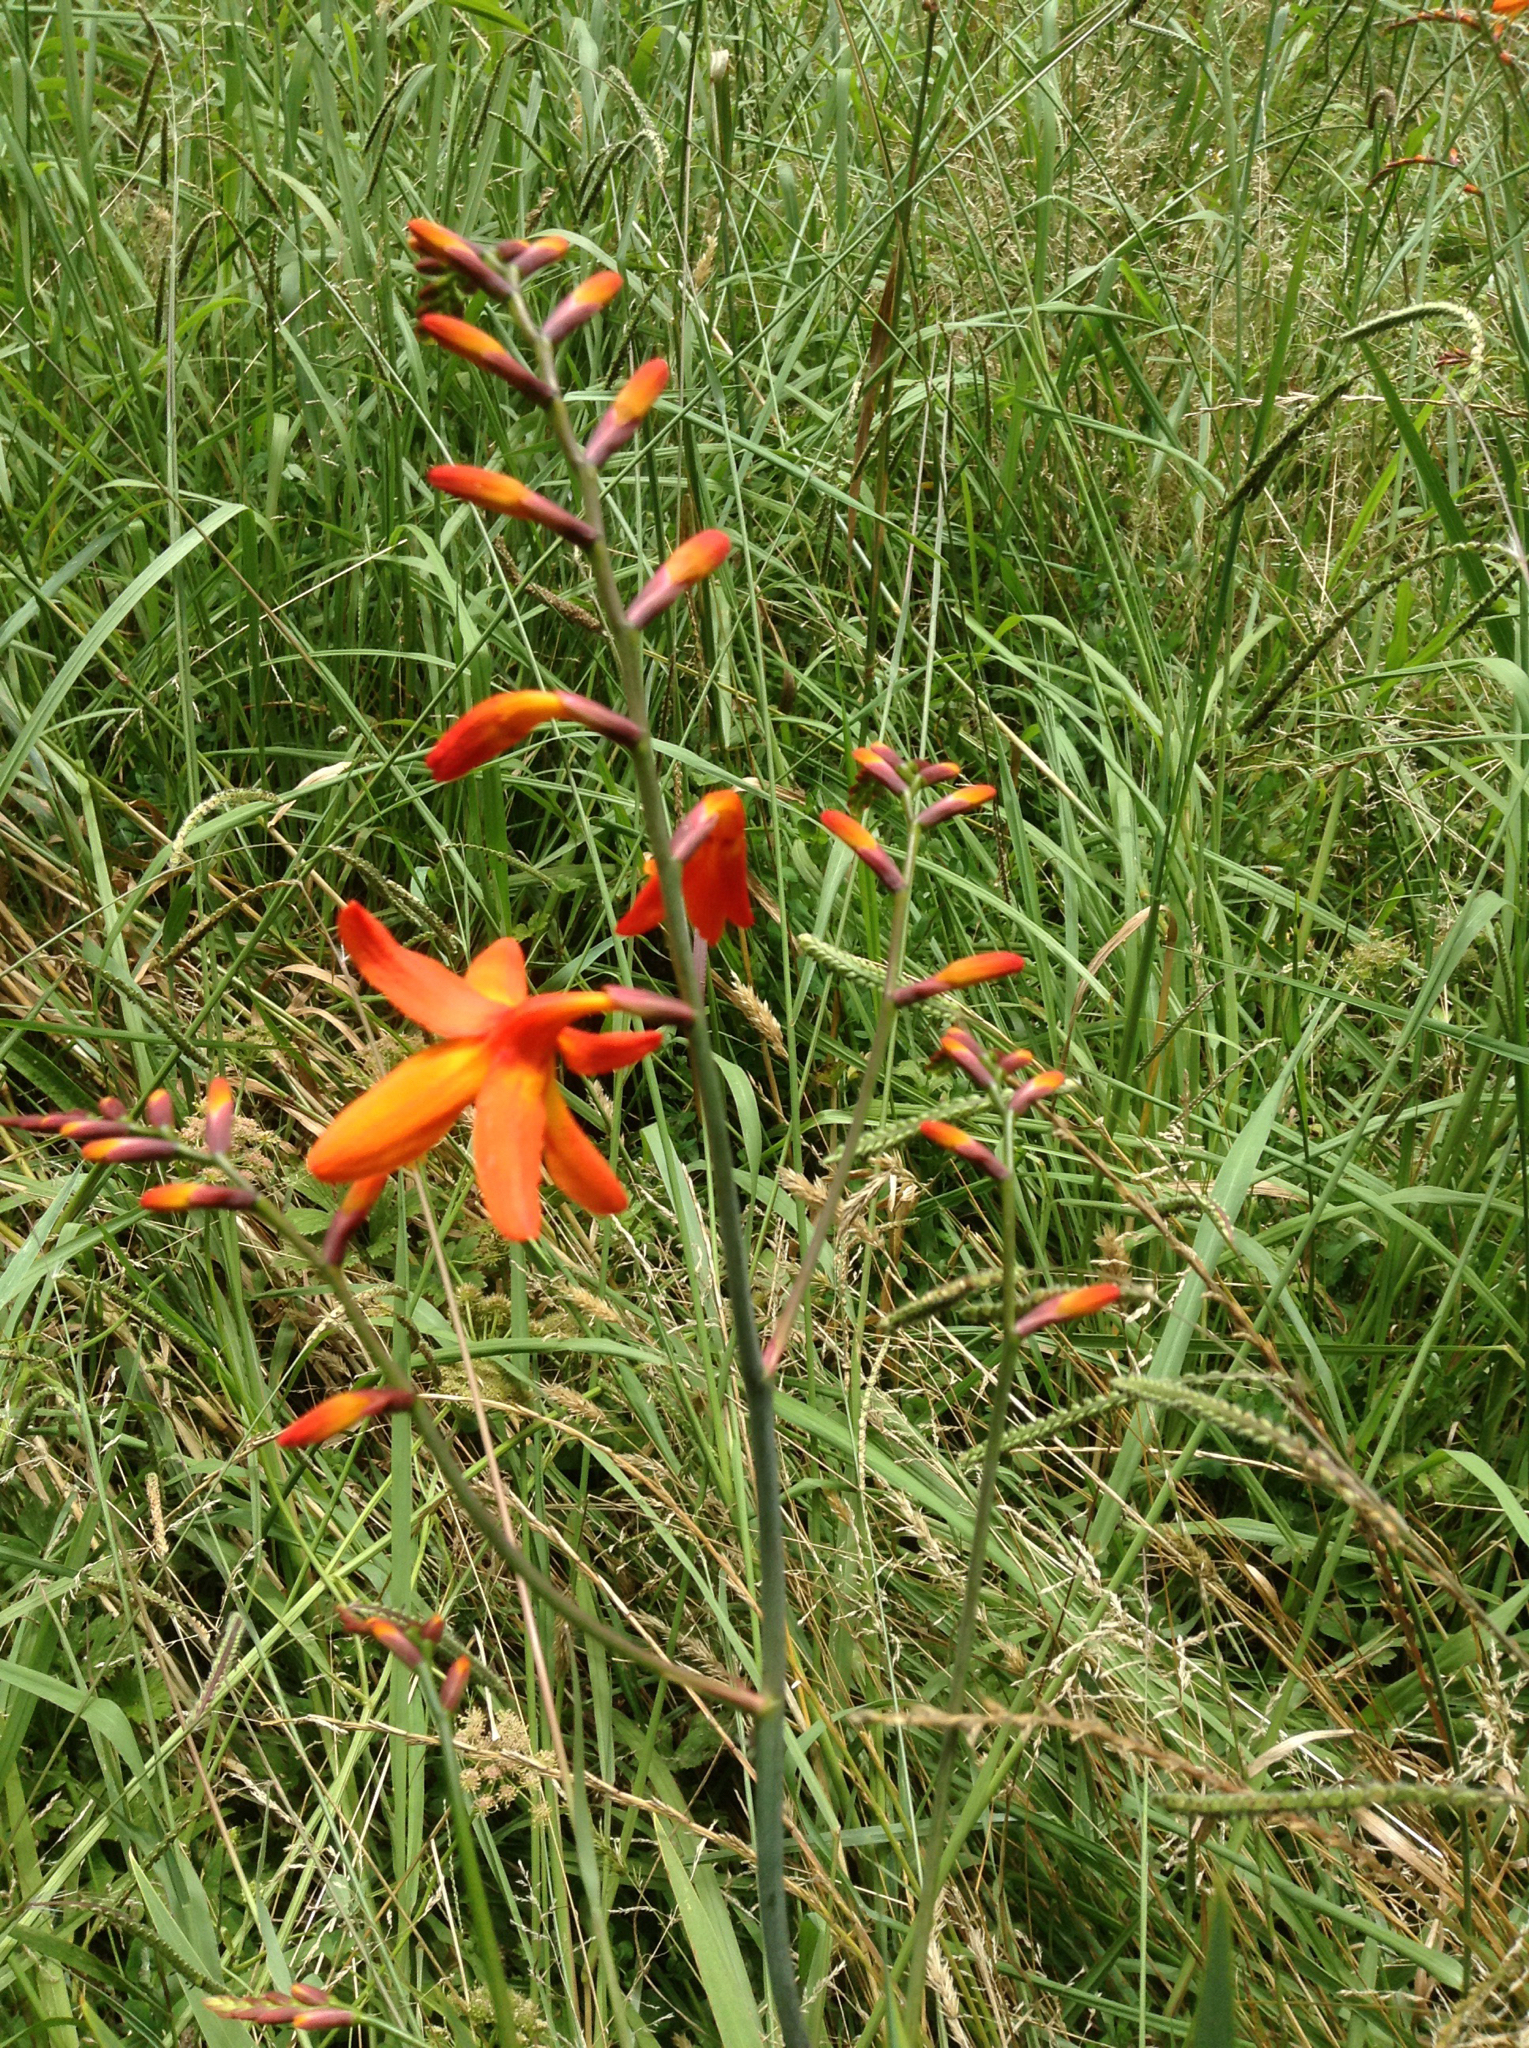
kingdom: Plantae
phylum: Tracheophyta
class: Liliopsida
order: Asparagales
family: Iridaceae
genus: Crocosmia
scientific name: Crocosmia crocosmiiflora
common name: Montbretia
